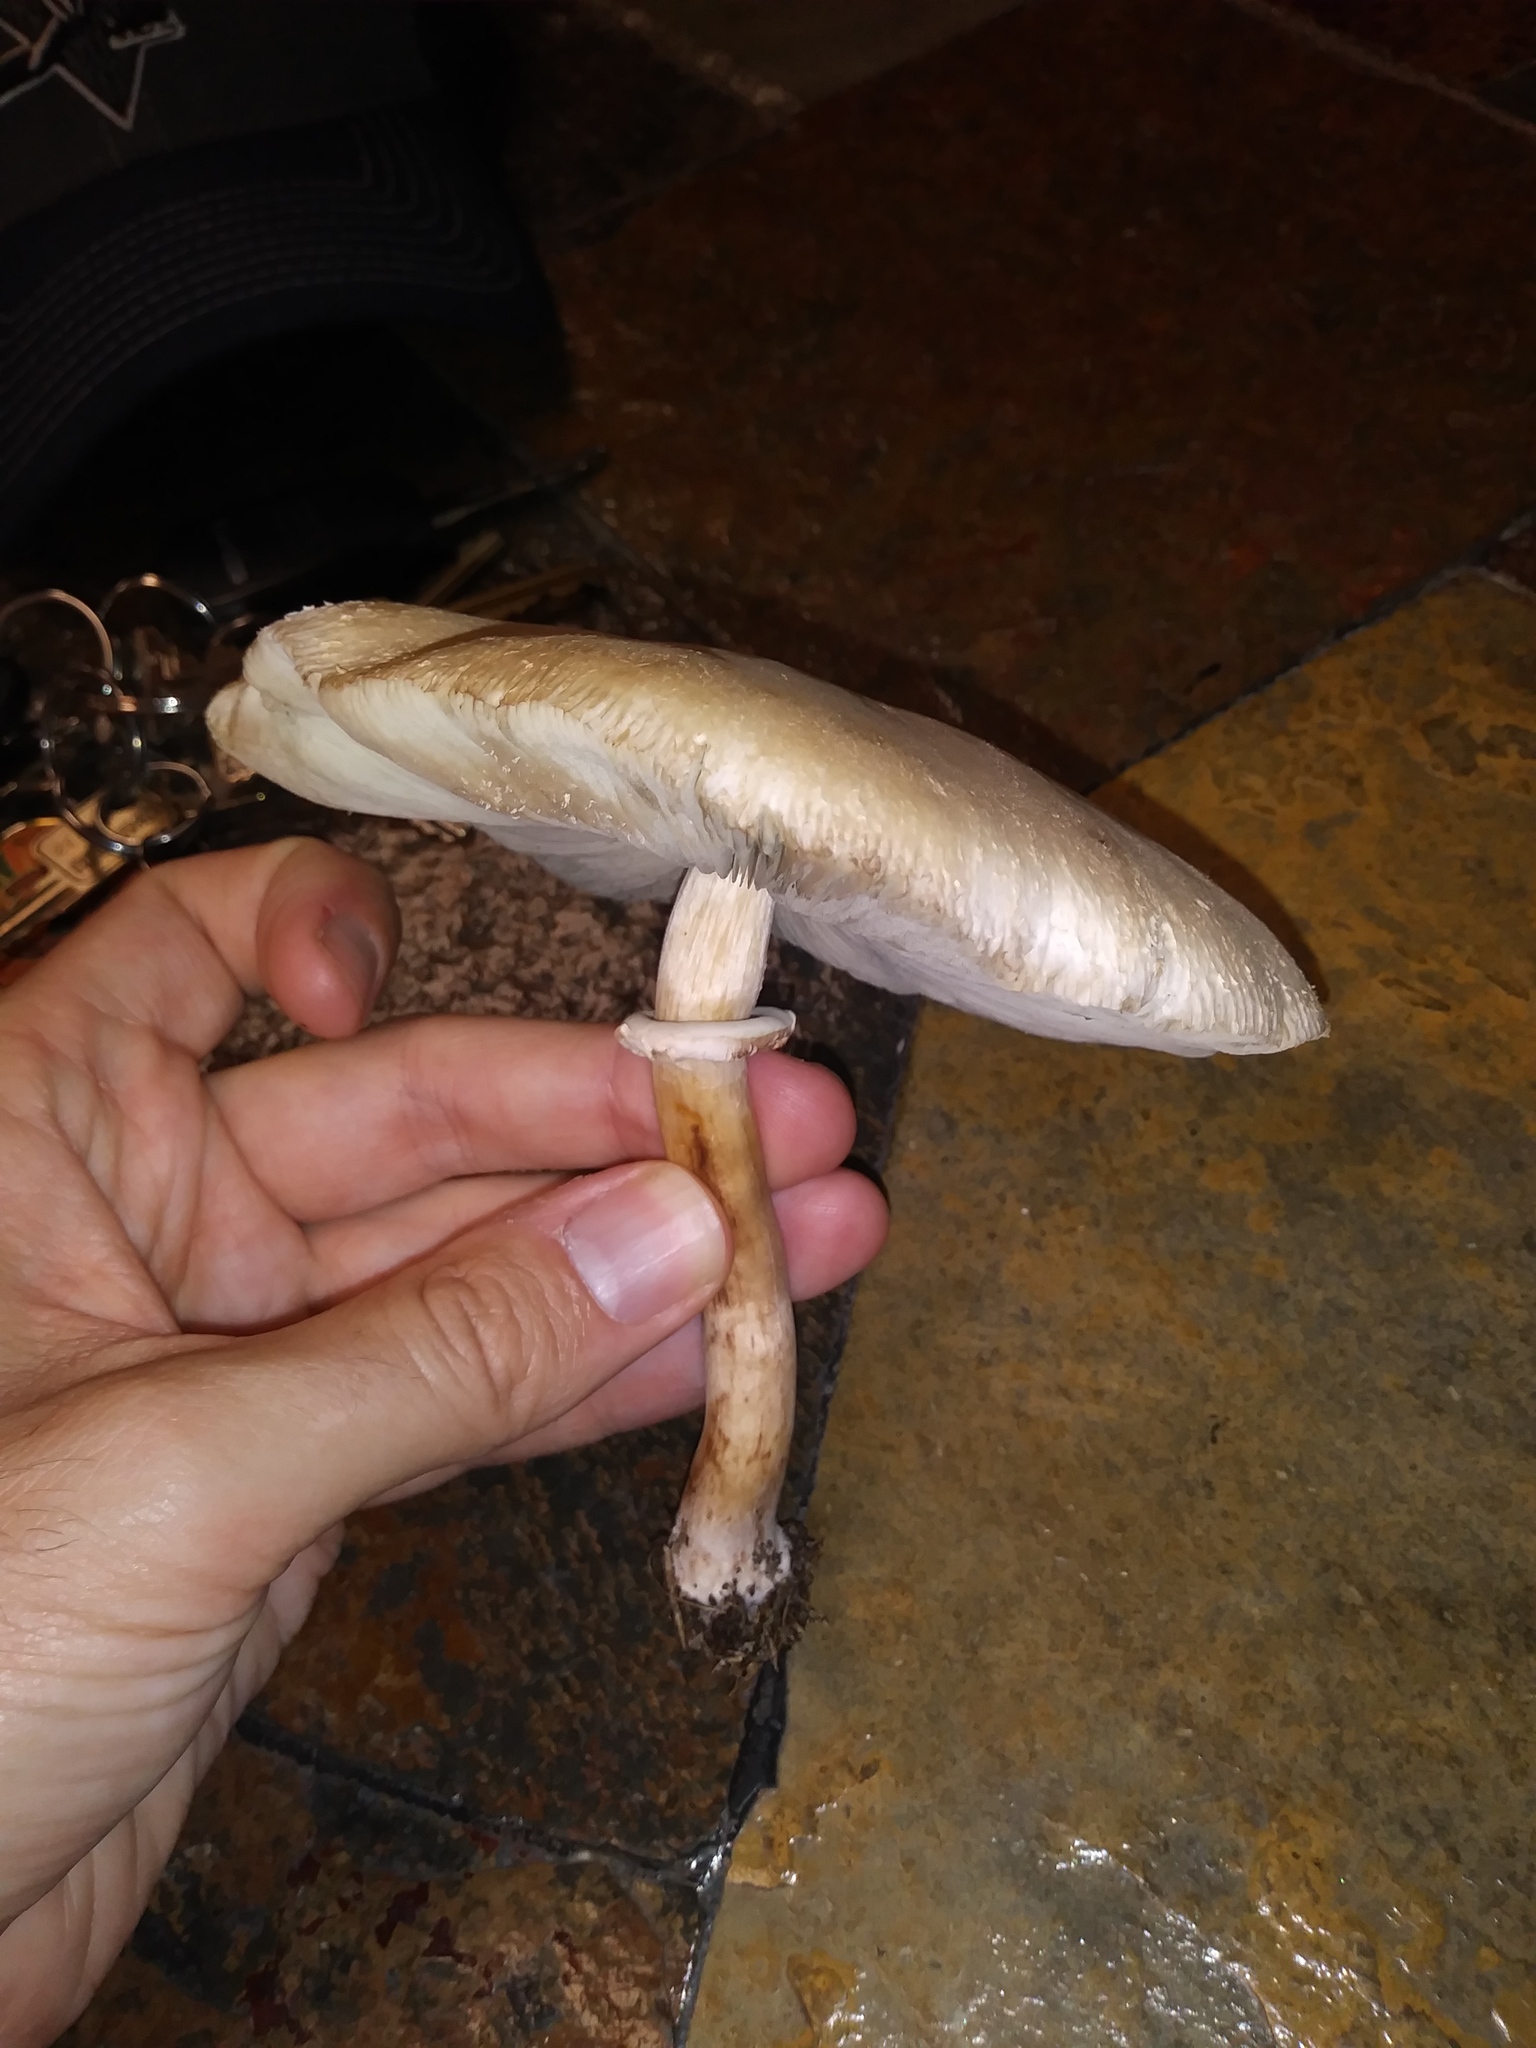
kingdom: Fungi
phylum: Basidiomycota
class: Agaricomycetes
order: Agaricales
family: Agaricaceae
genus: Chlorophyllum
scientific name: Chlorophyllum molybdites
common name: False parasol
